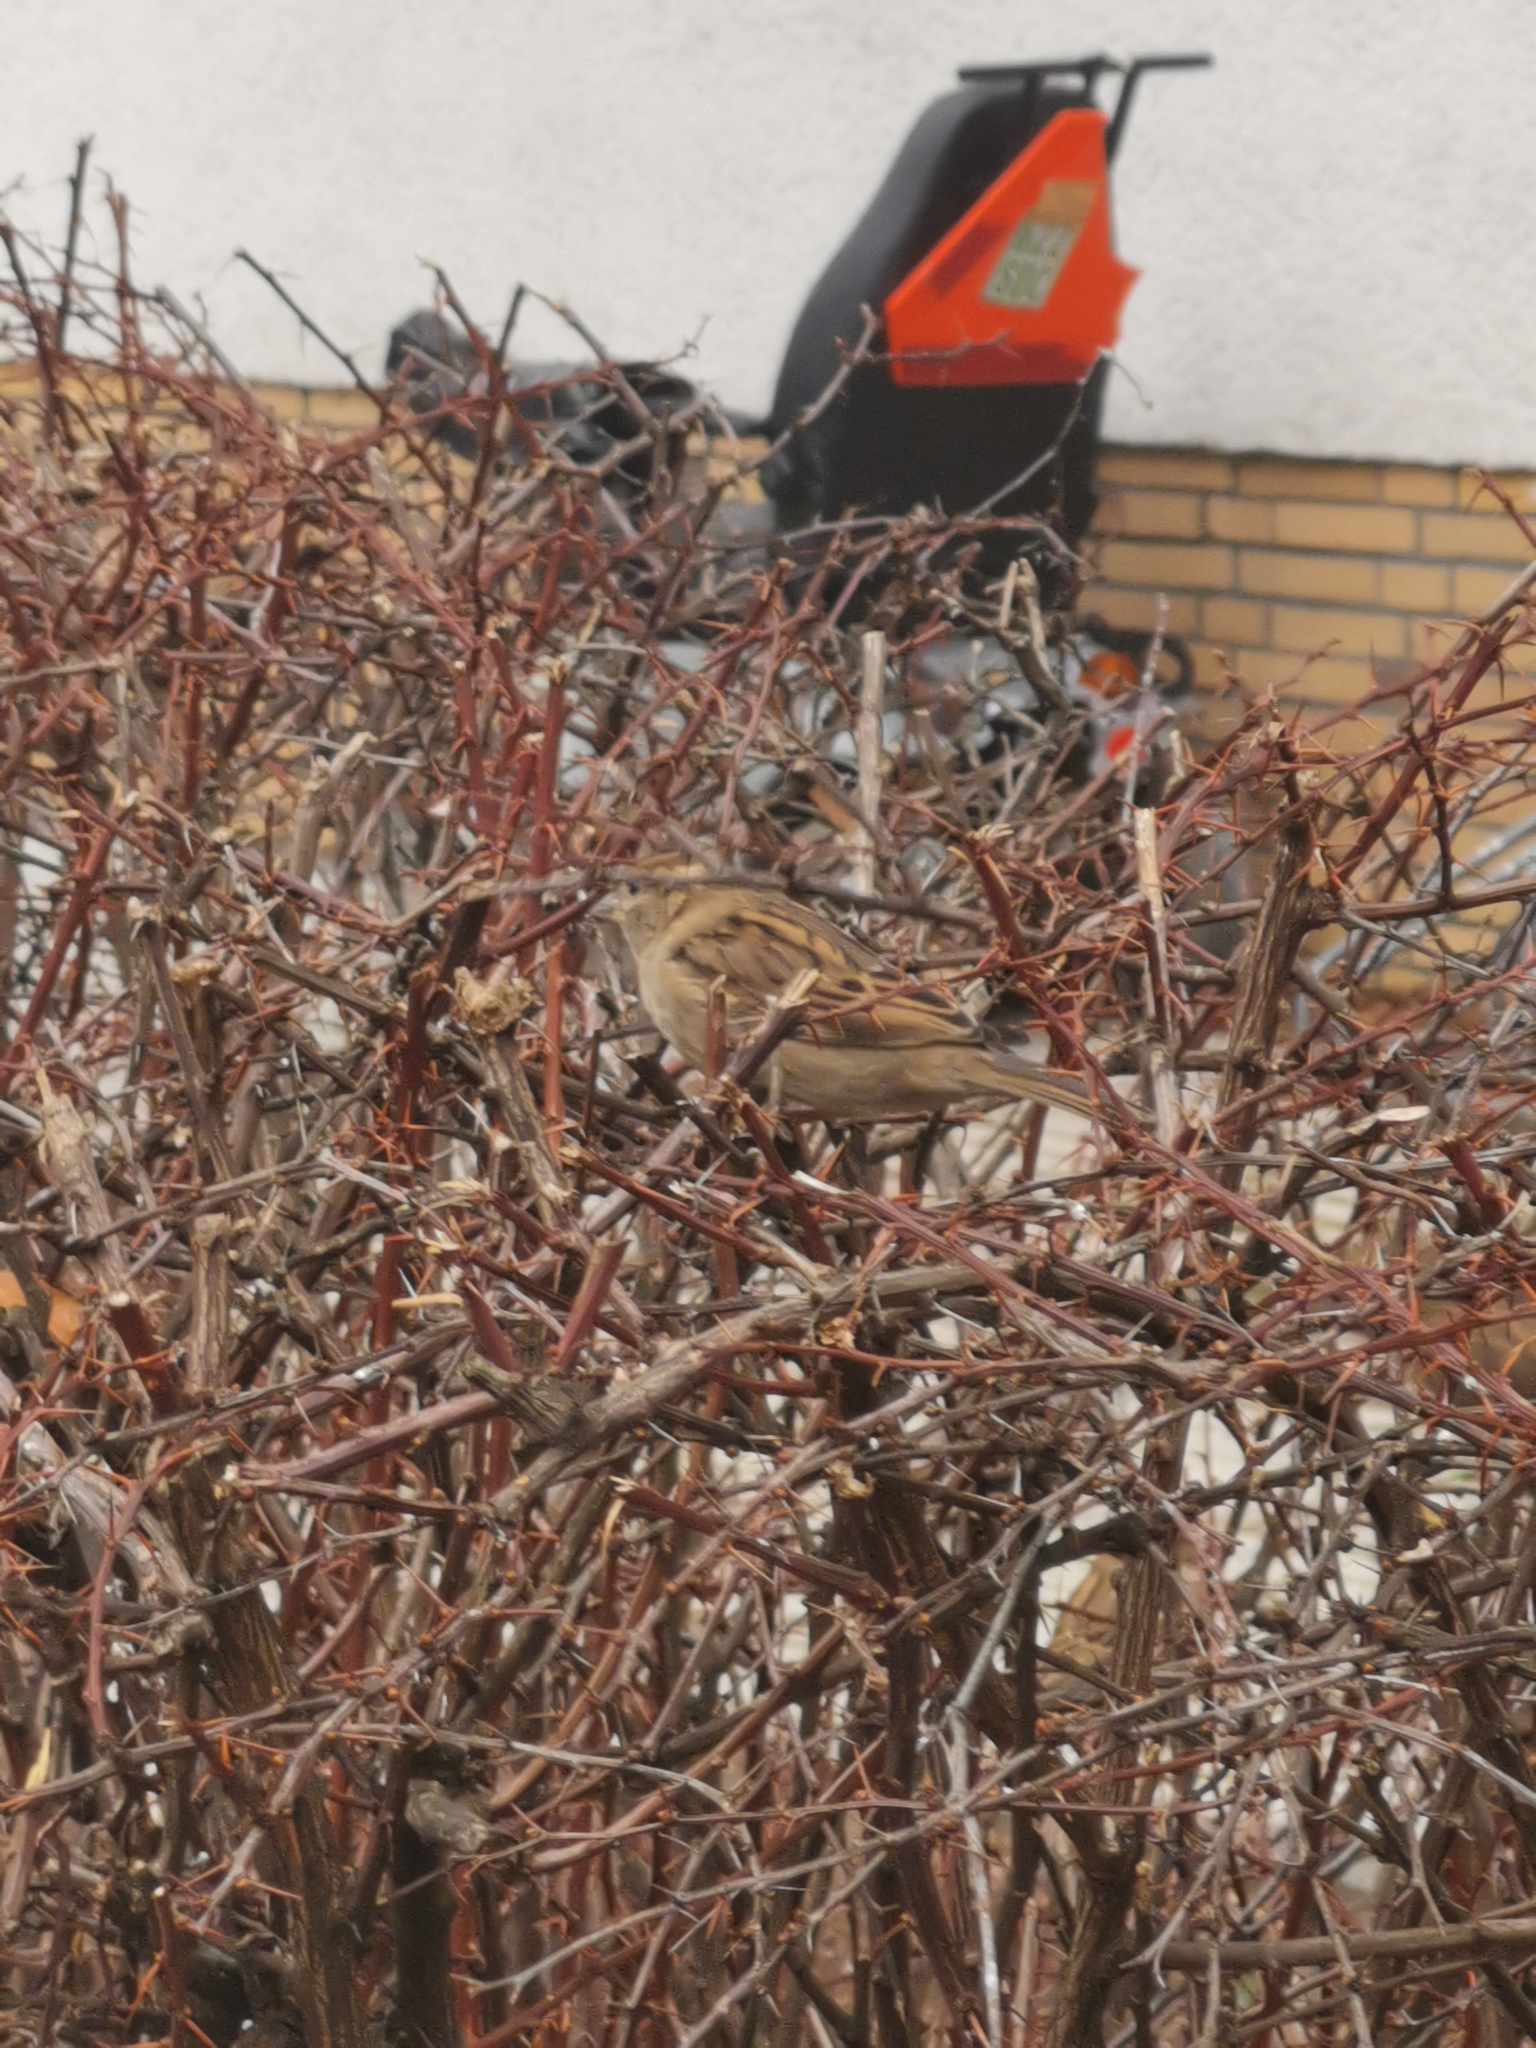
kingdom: Animalia
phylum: Chordata
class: Aves
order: Passeriformes
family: Passeridae
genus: Passer
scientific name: Passer domesticus
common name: House sparrow
